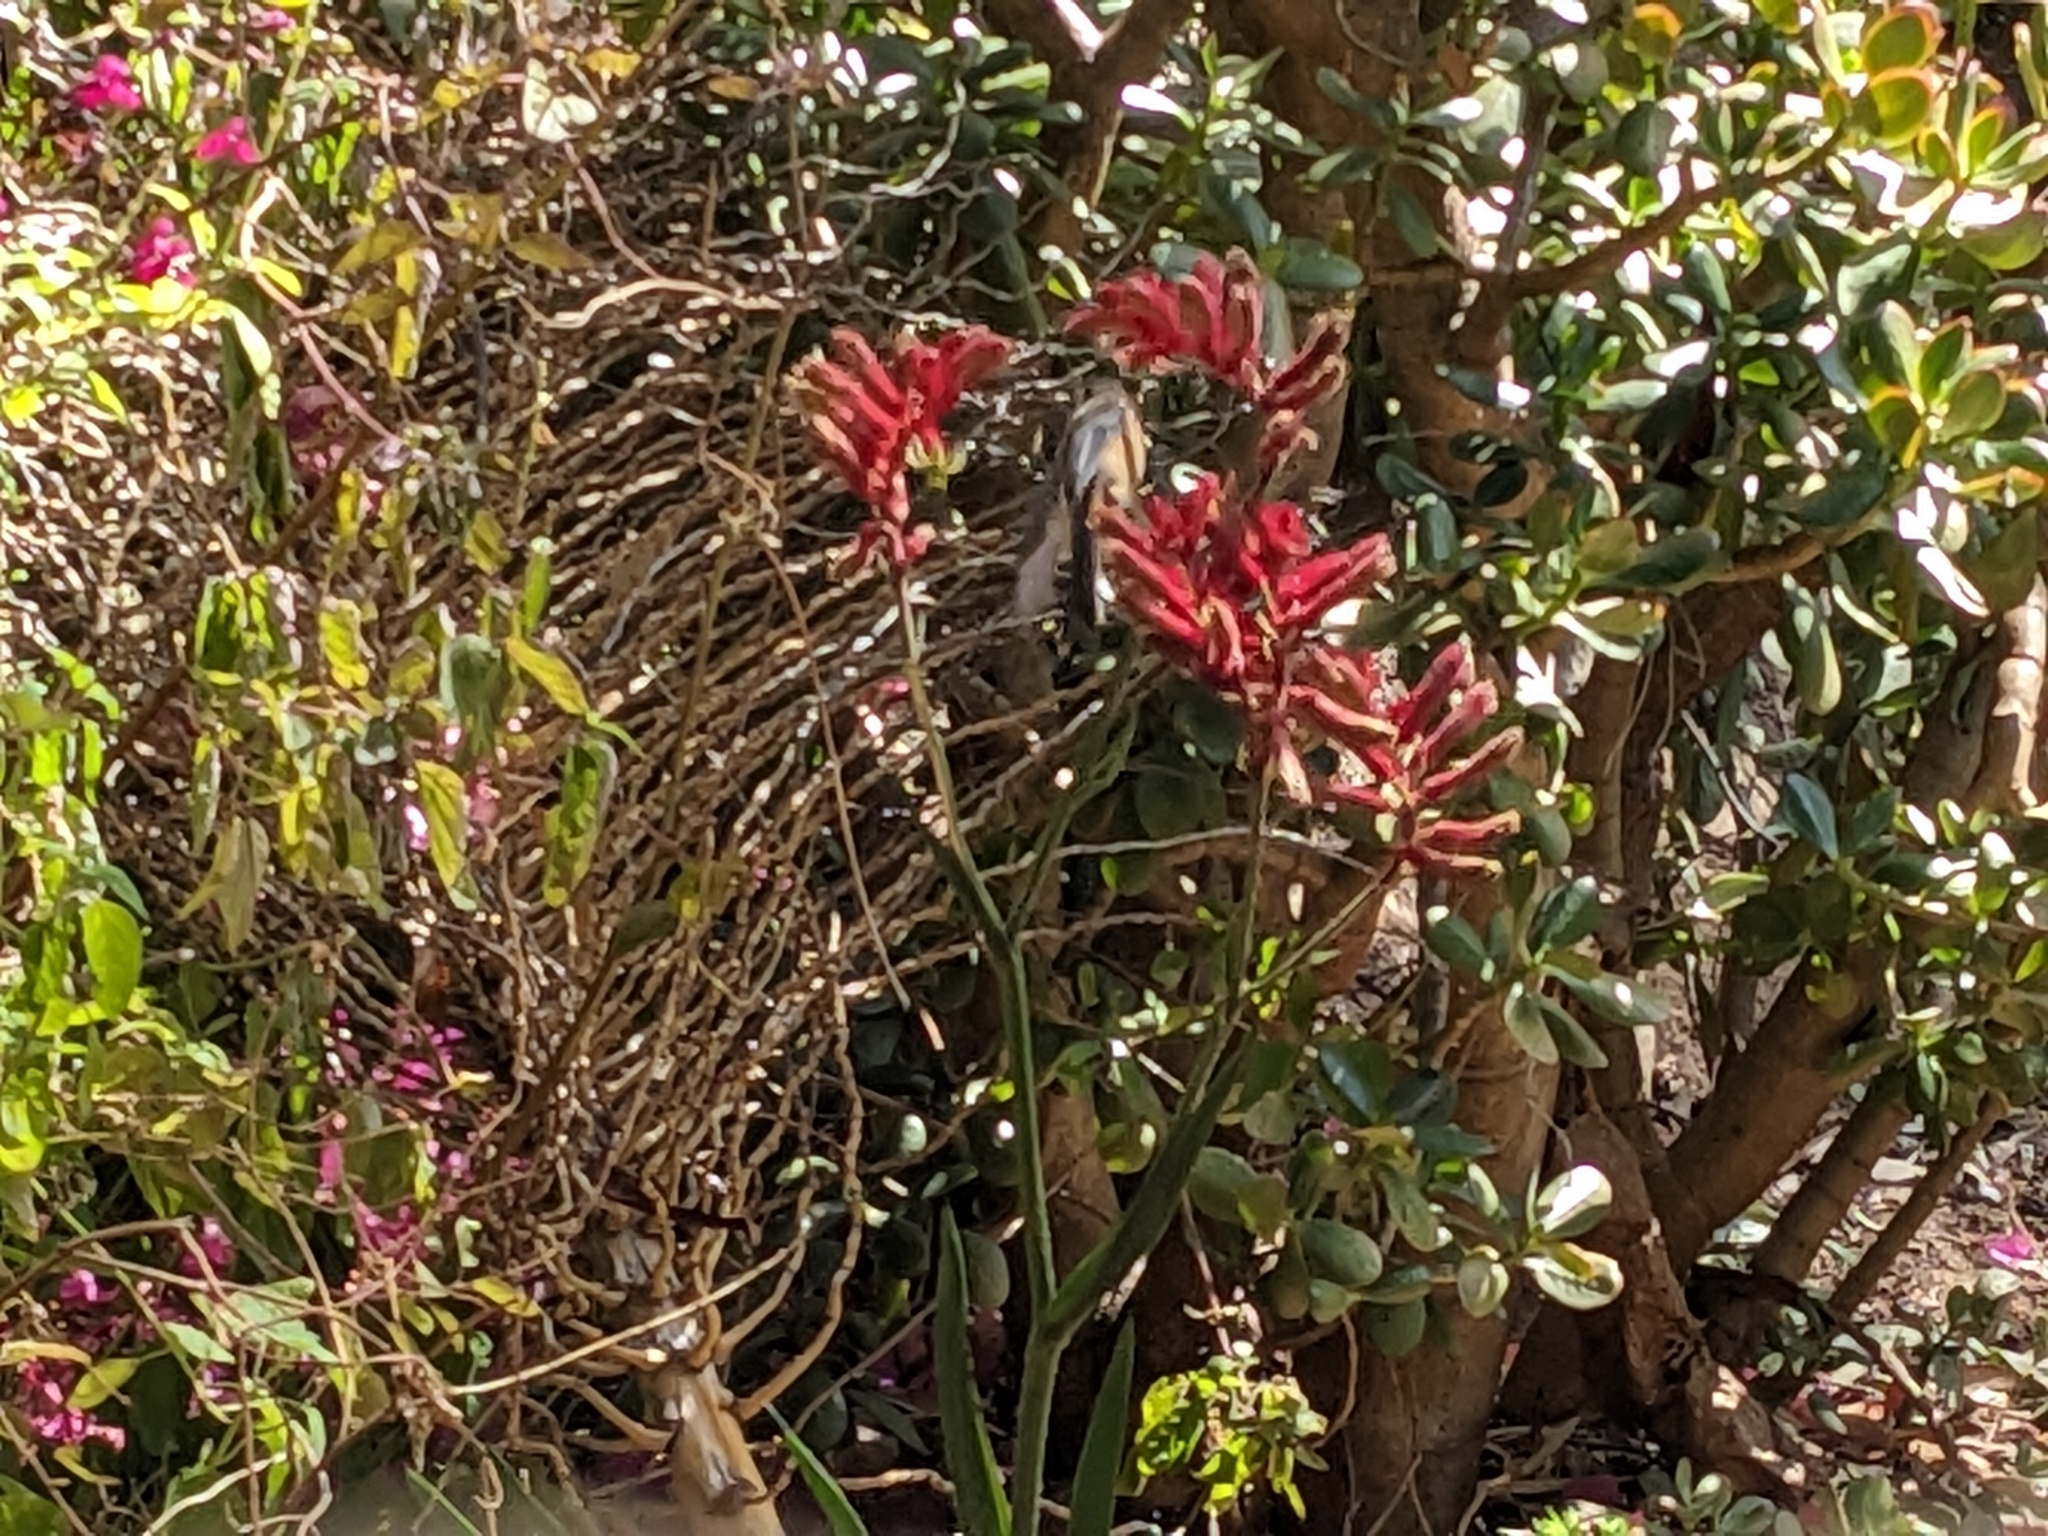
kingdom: Animalia
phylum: Chordata
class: Aves
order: Passeriformes
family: Meliphagidae
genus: Acanthorhynchus
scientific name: Acanthorhynchus tenuirostris
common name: Eastern spinebill
